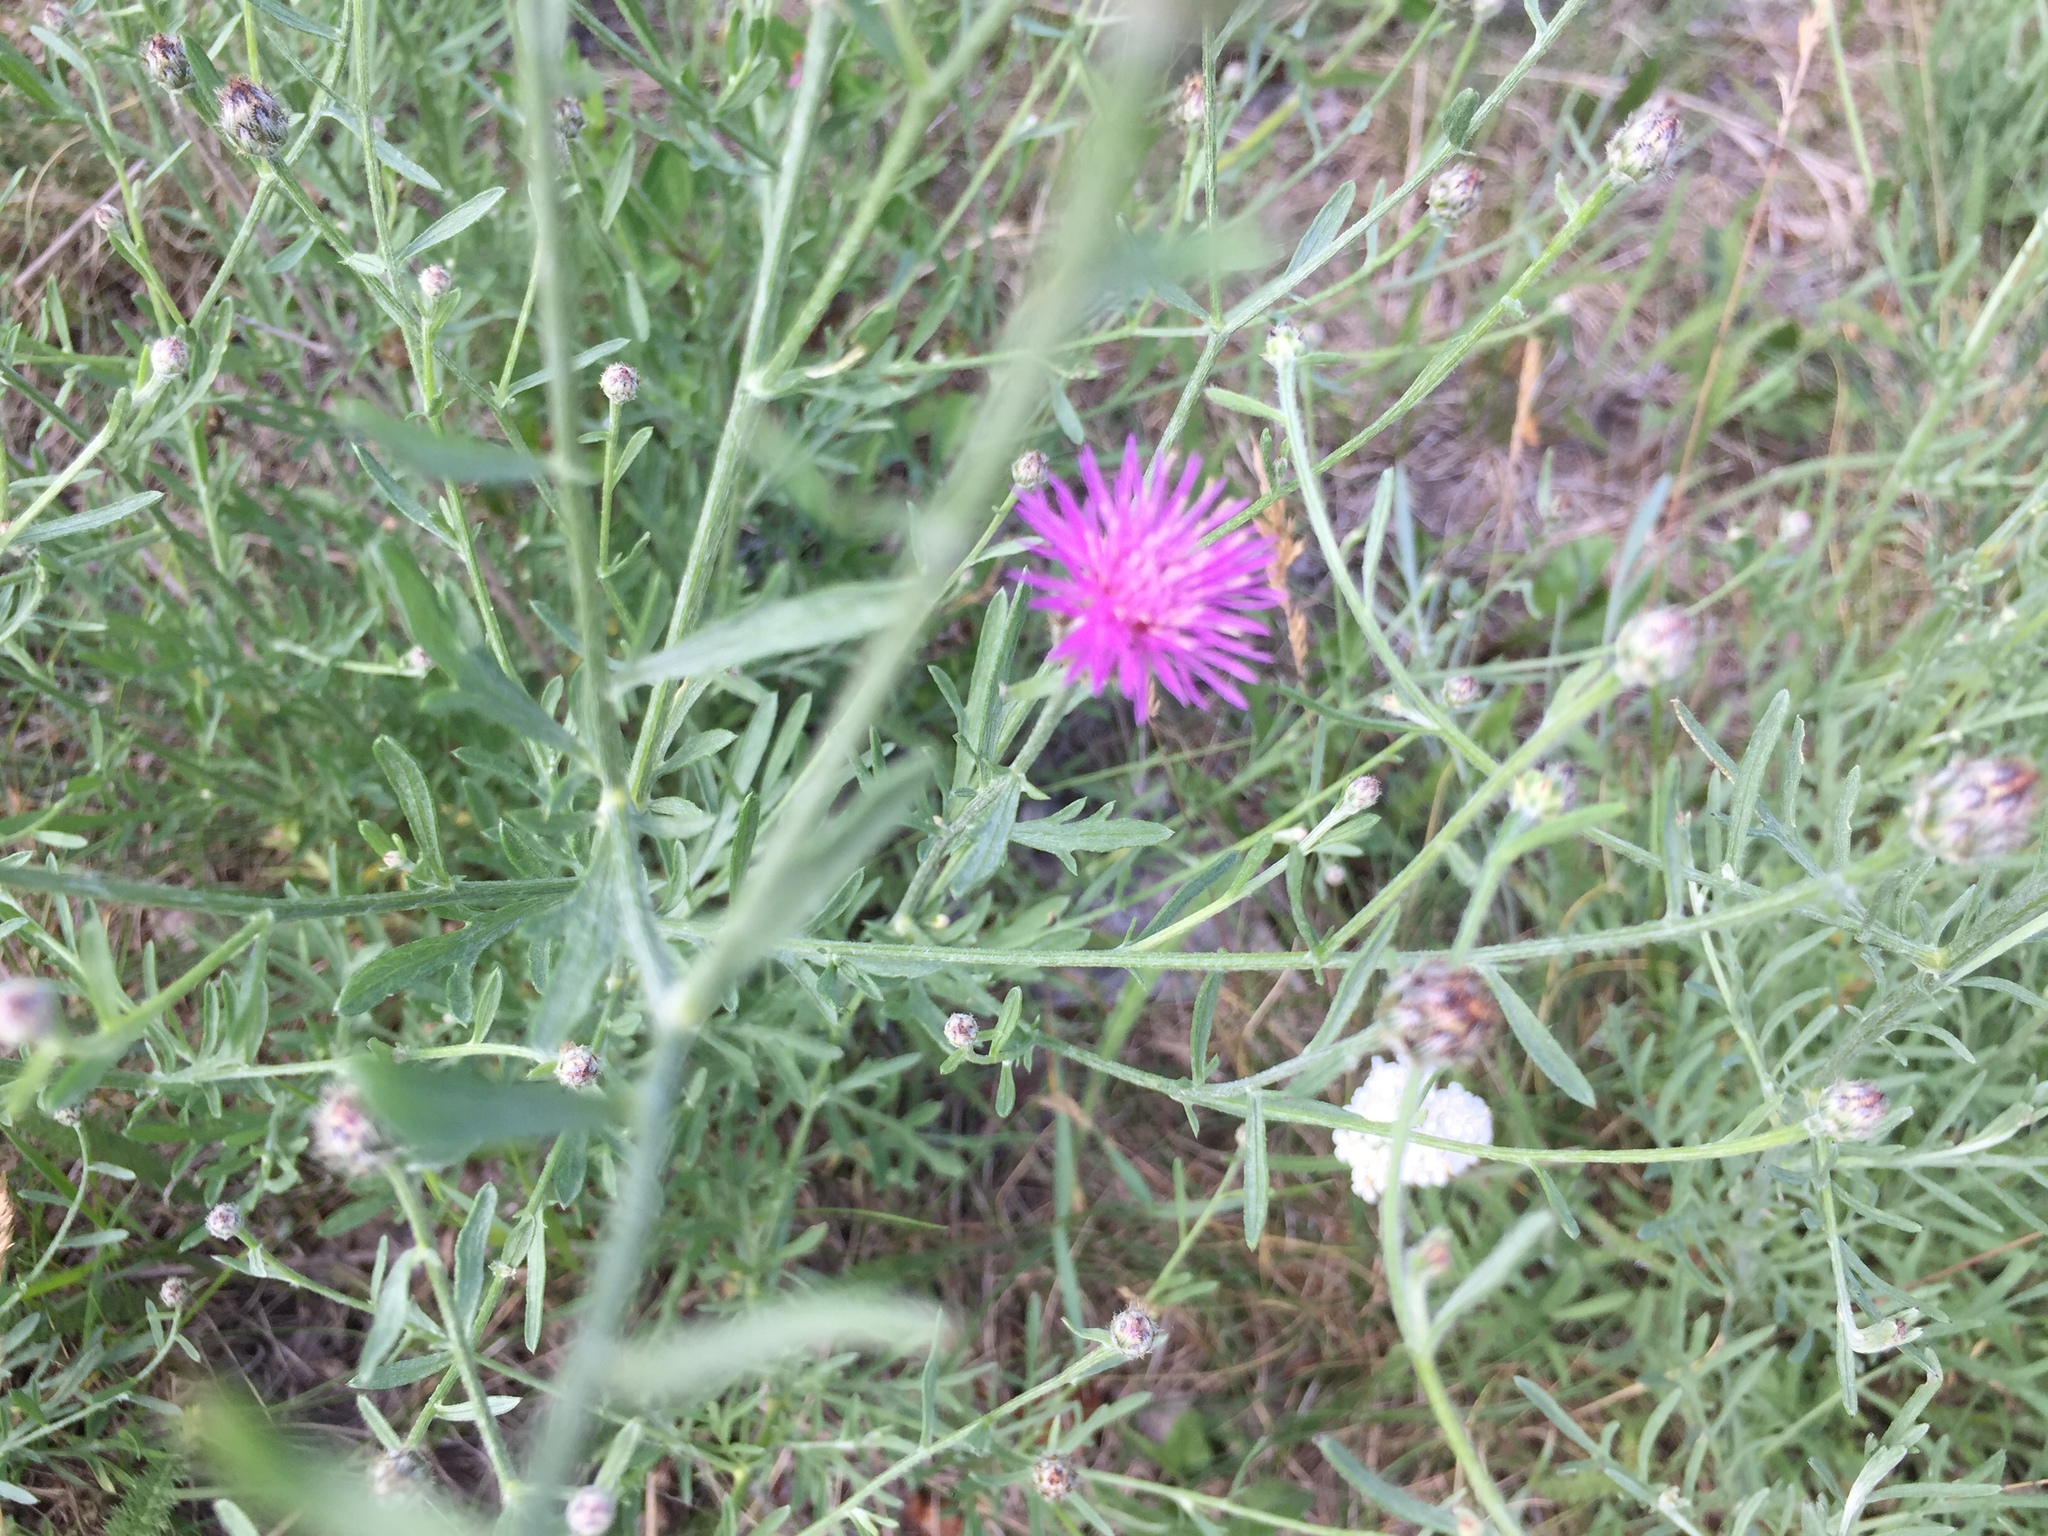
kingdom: Plantae
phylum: Tracheophyta
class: Magnoliopsida
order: Asterales
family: Asteraceae
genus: Centaurea
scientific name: Centaurea stoebe
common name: Spotted knapweed
